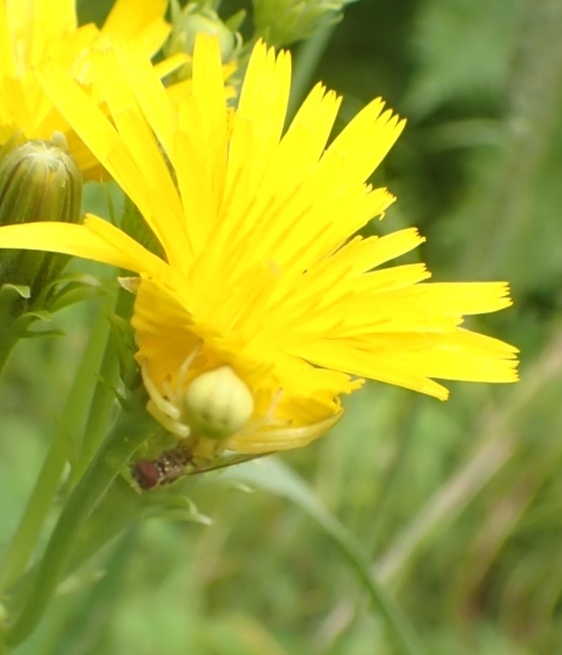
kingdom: Animalia
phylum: Arthropoda
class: Arachnida
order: Araneae
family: Thomisidae
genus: Misumena
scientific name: Misumena vatia
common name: Goldenrod crab spider
